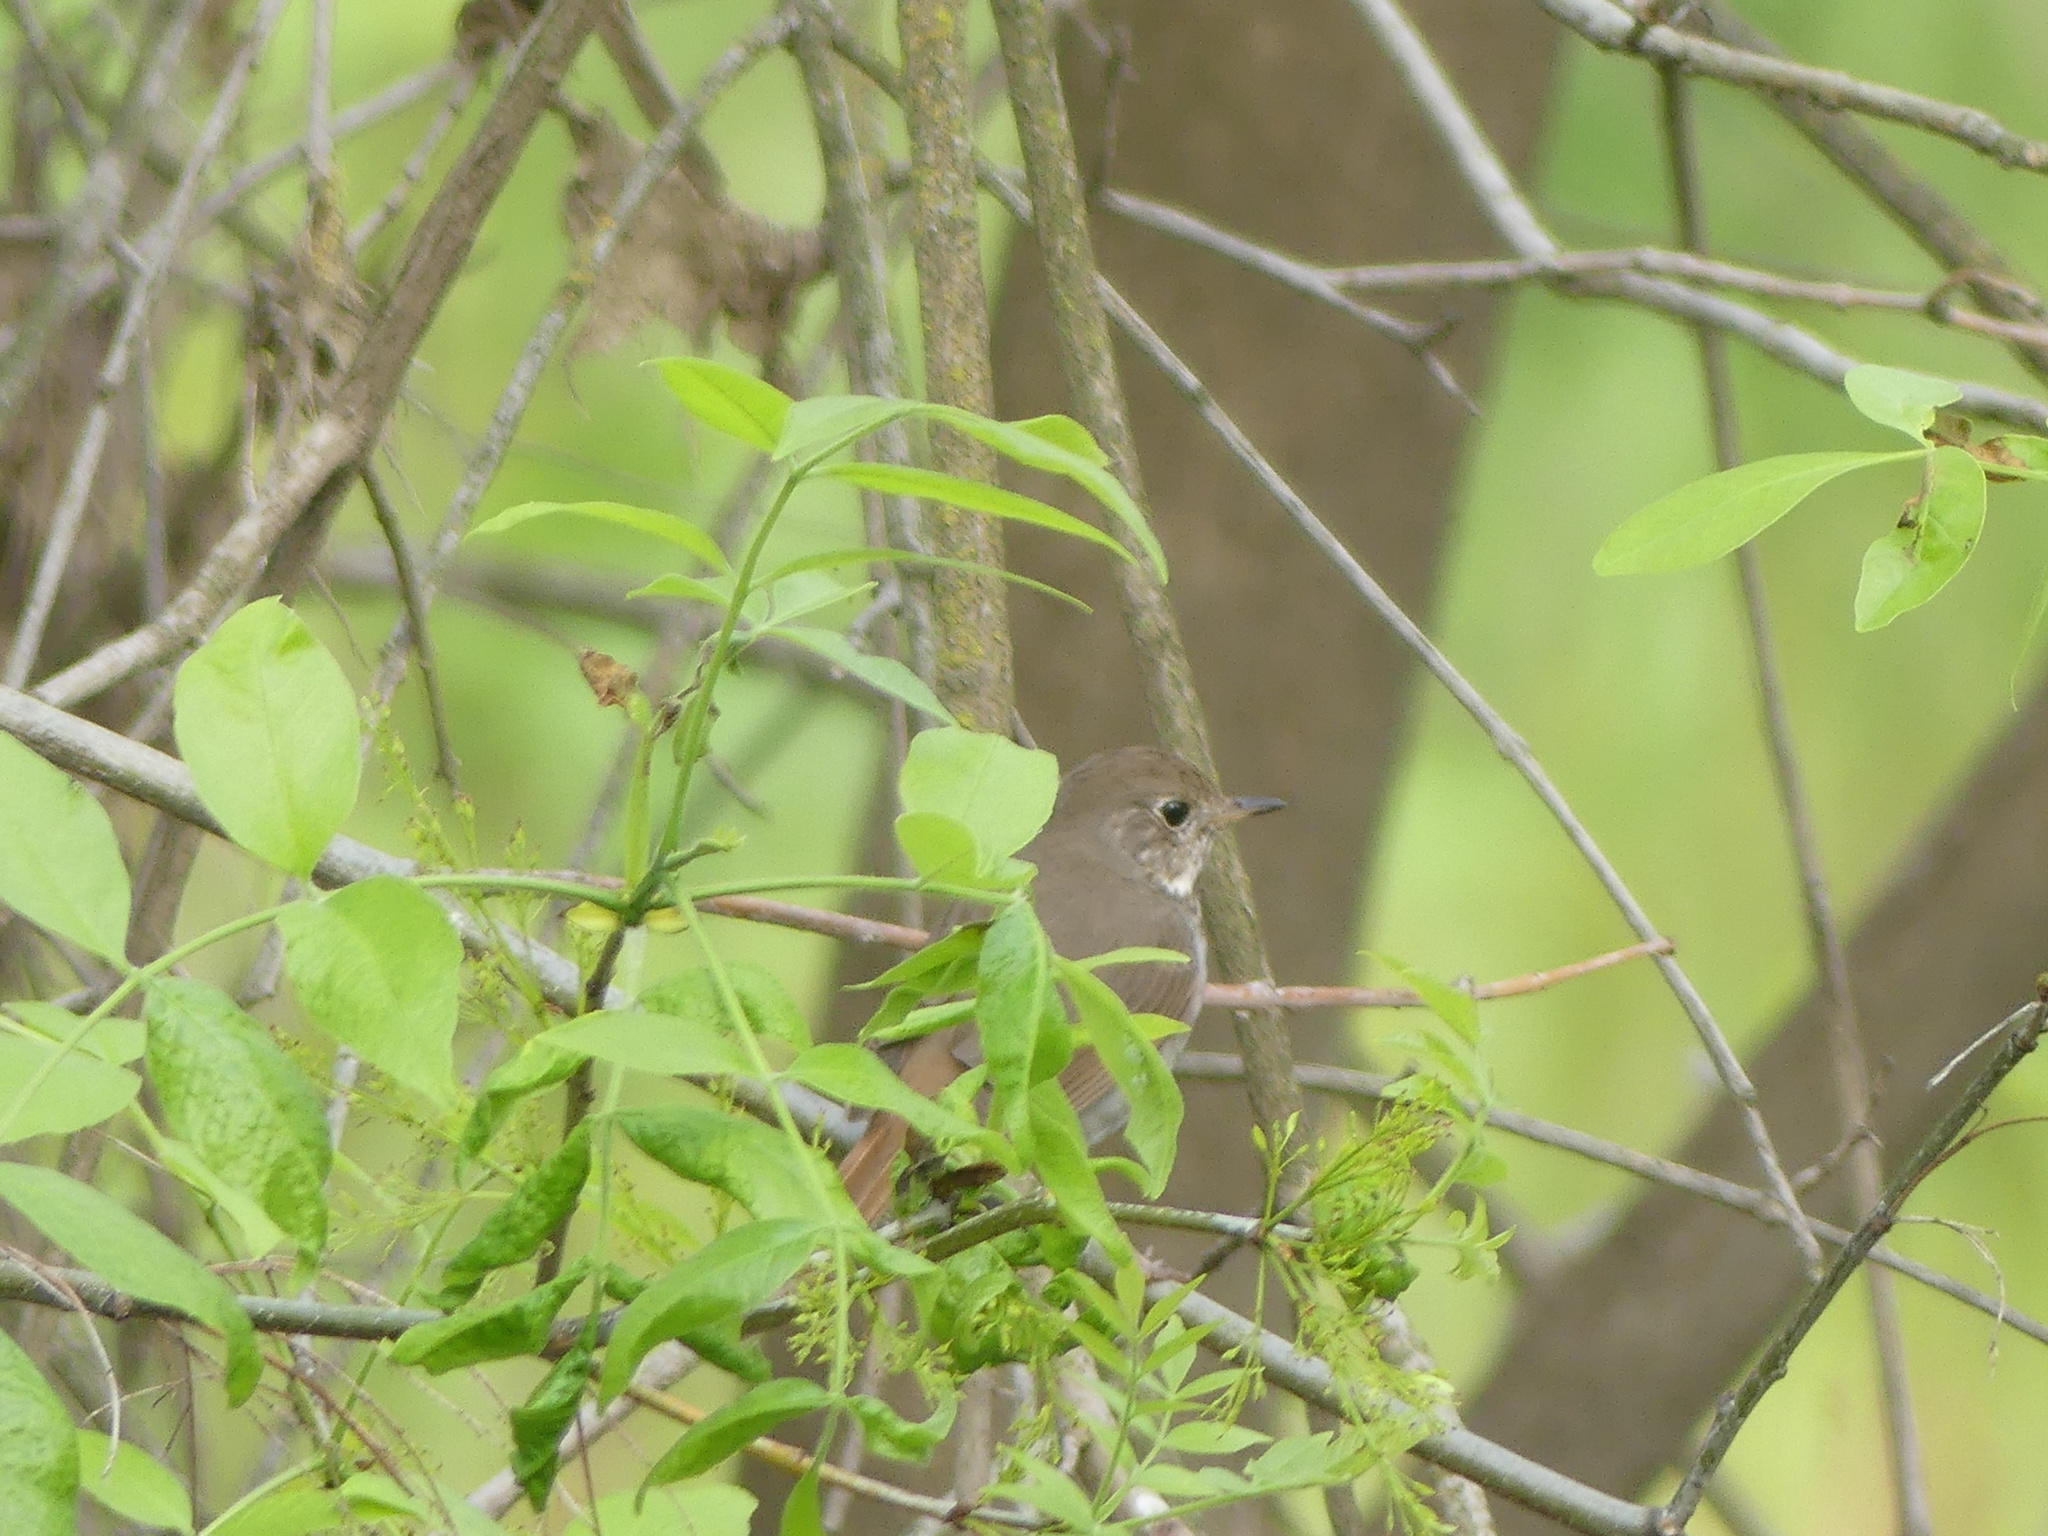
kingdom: Animalia
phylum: Chordata
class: Aves
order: Passeriformes
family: Turdidae
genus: Catharus
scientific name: Catharus guttatus
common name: Hermit thrush
